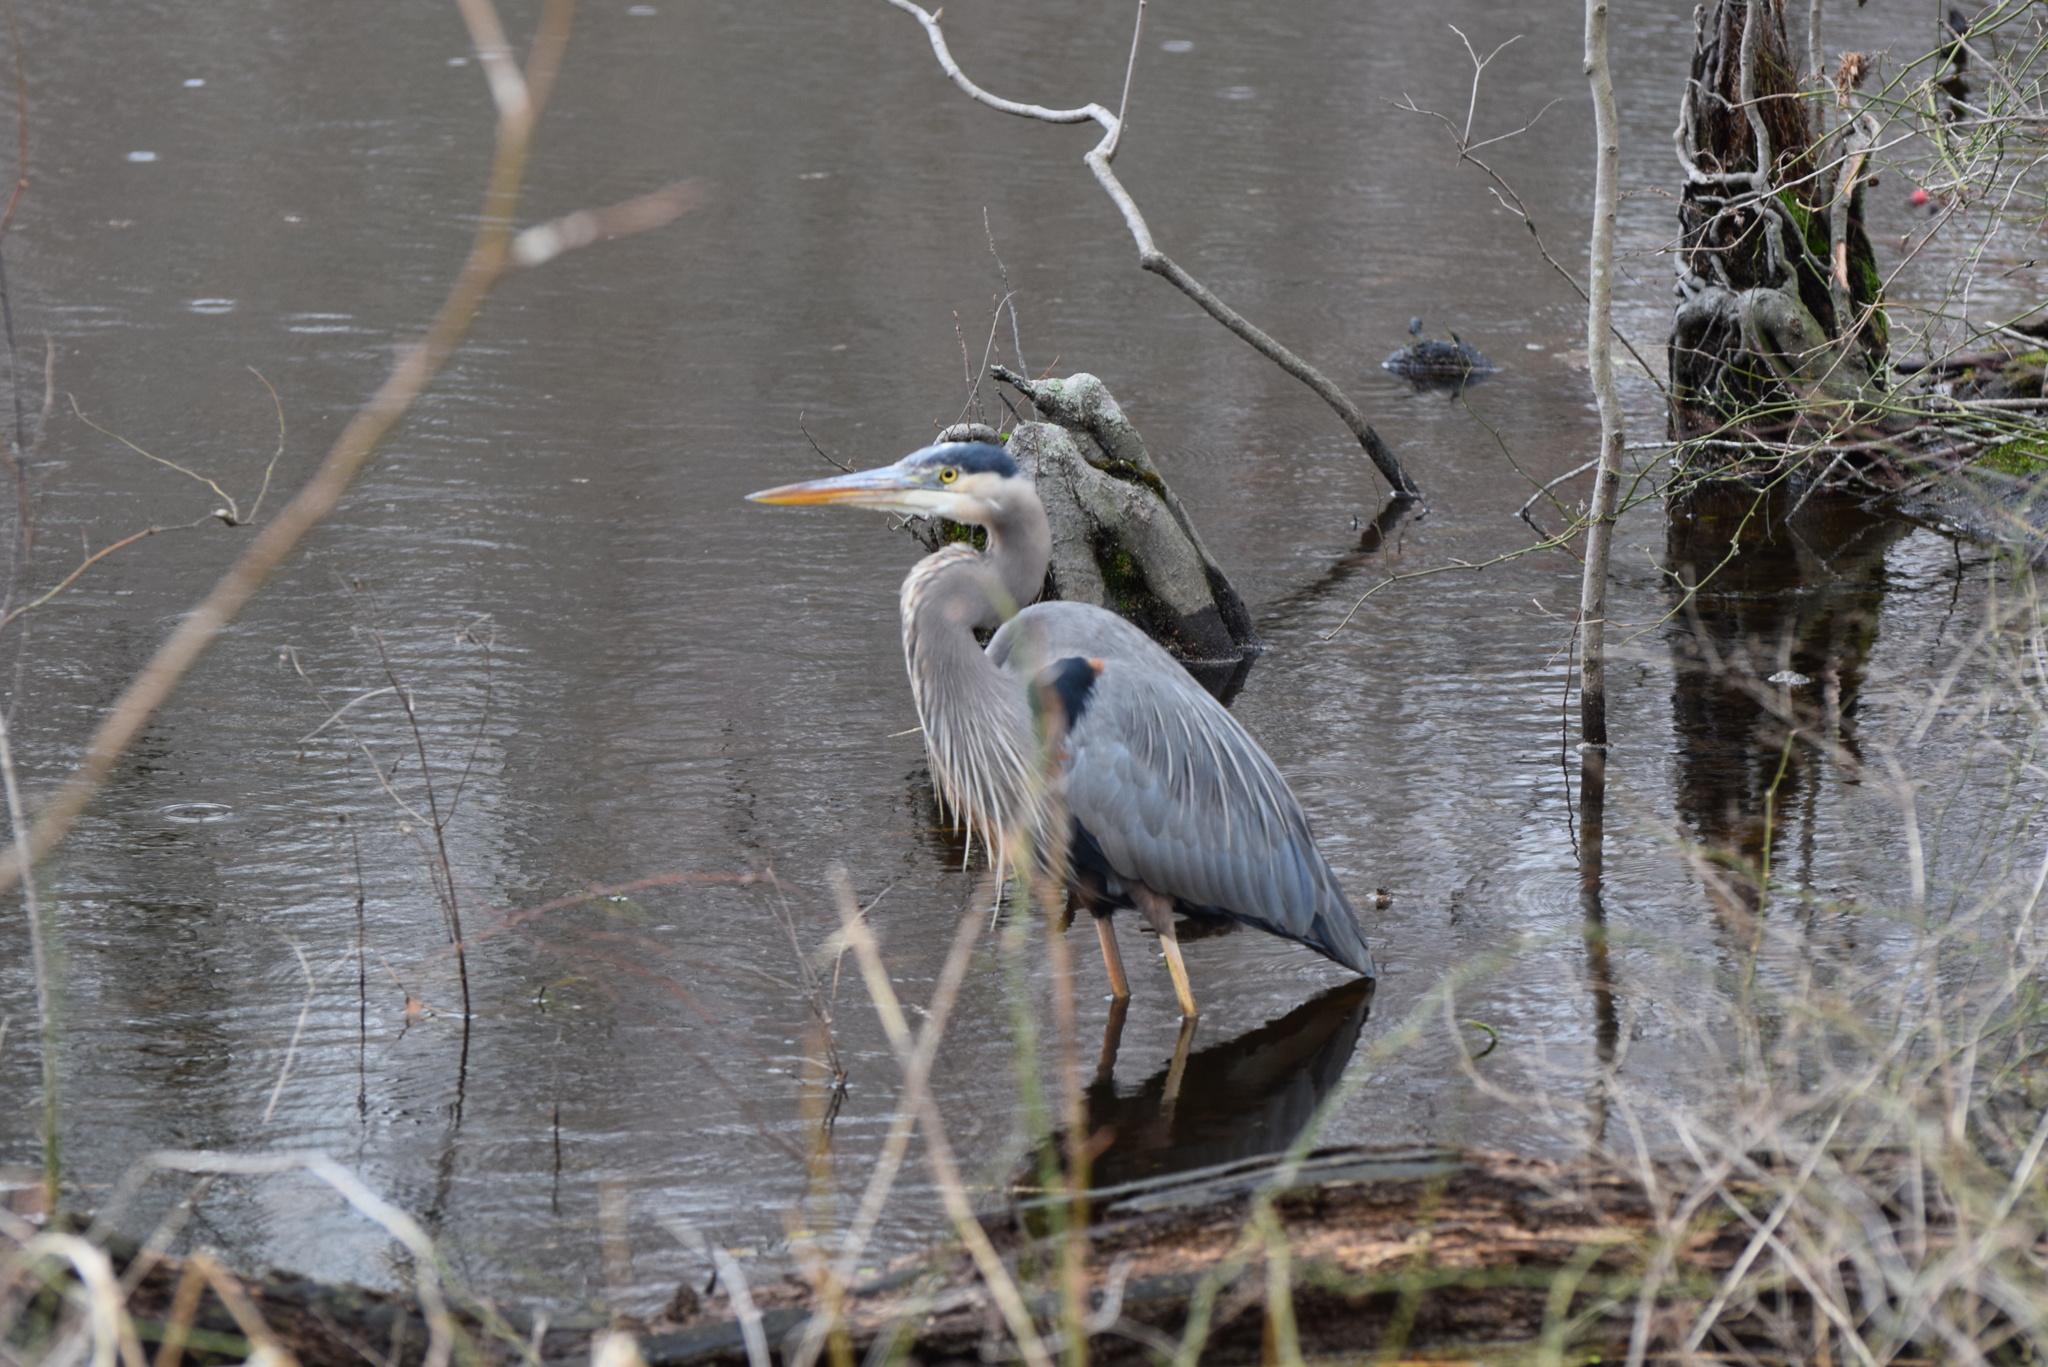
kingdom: Animalia
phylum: Chordata
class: Aves
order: Pelecaniformes
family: Ardeidae
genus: Ardea
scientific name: Ardea herodias
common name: Great blue heron
